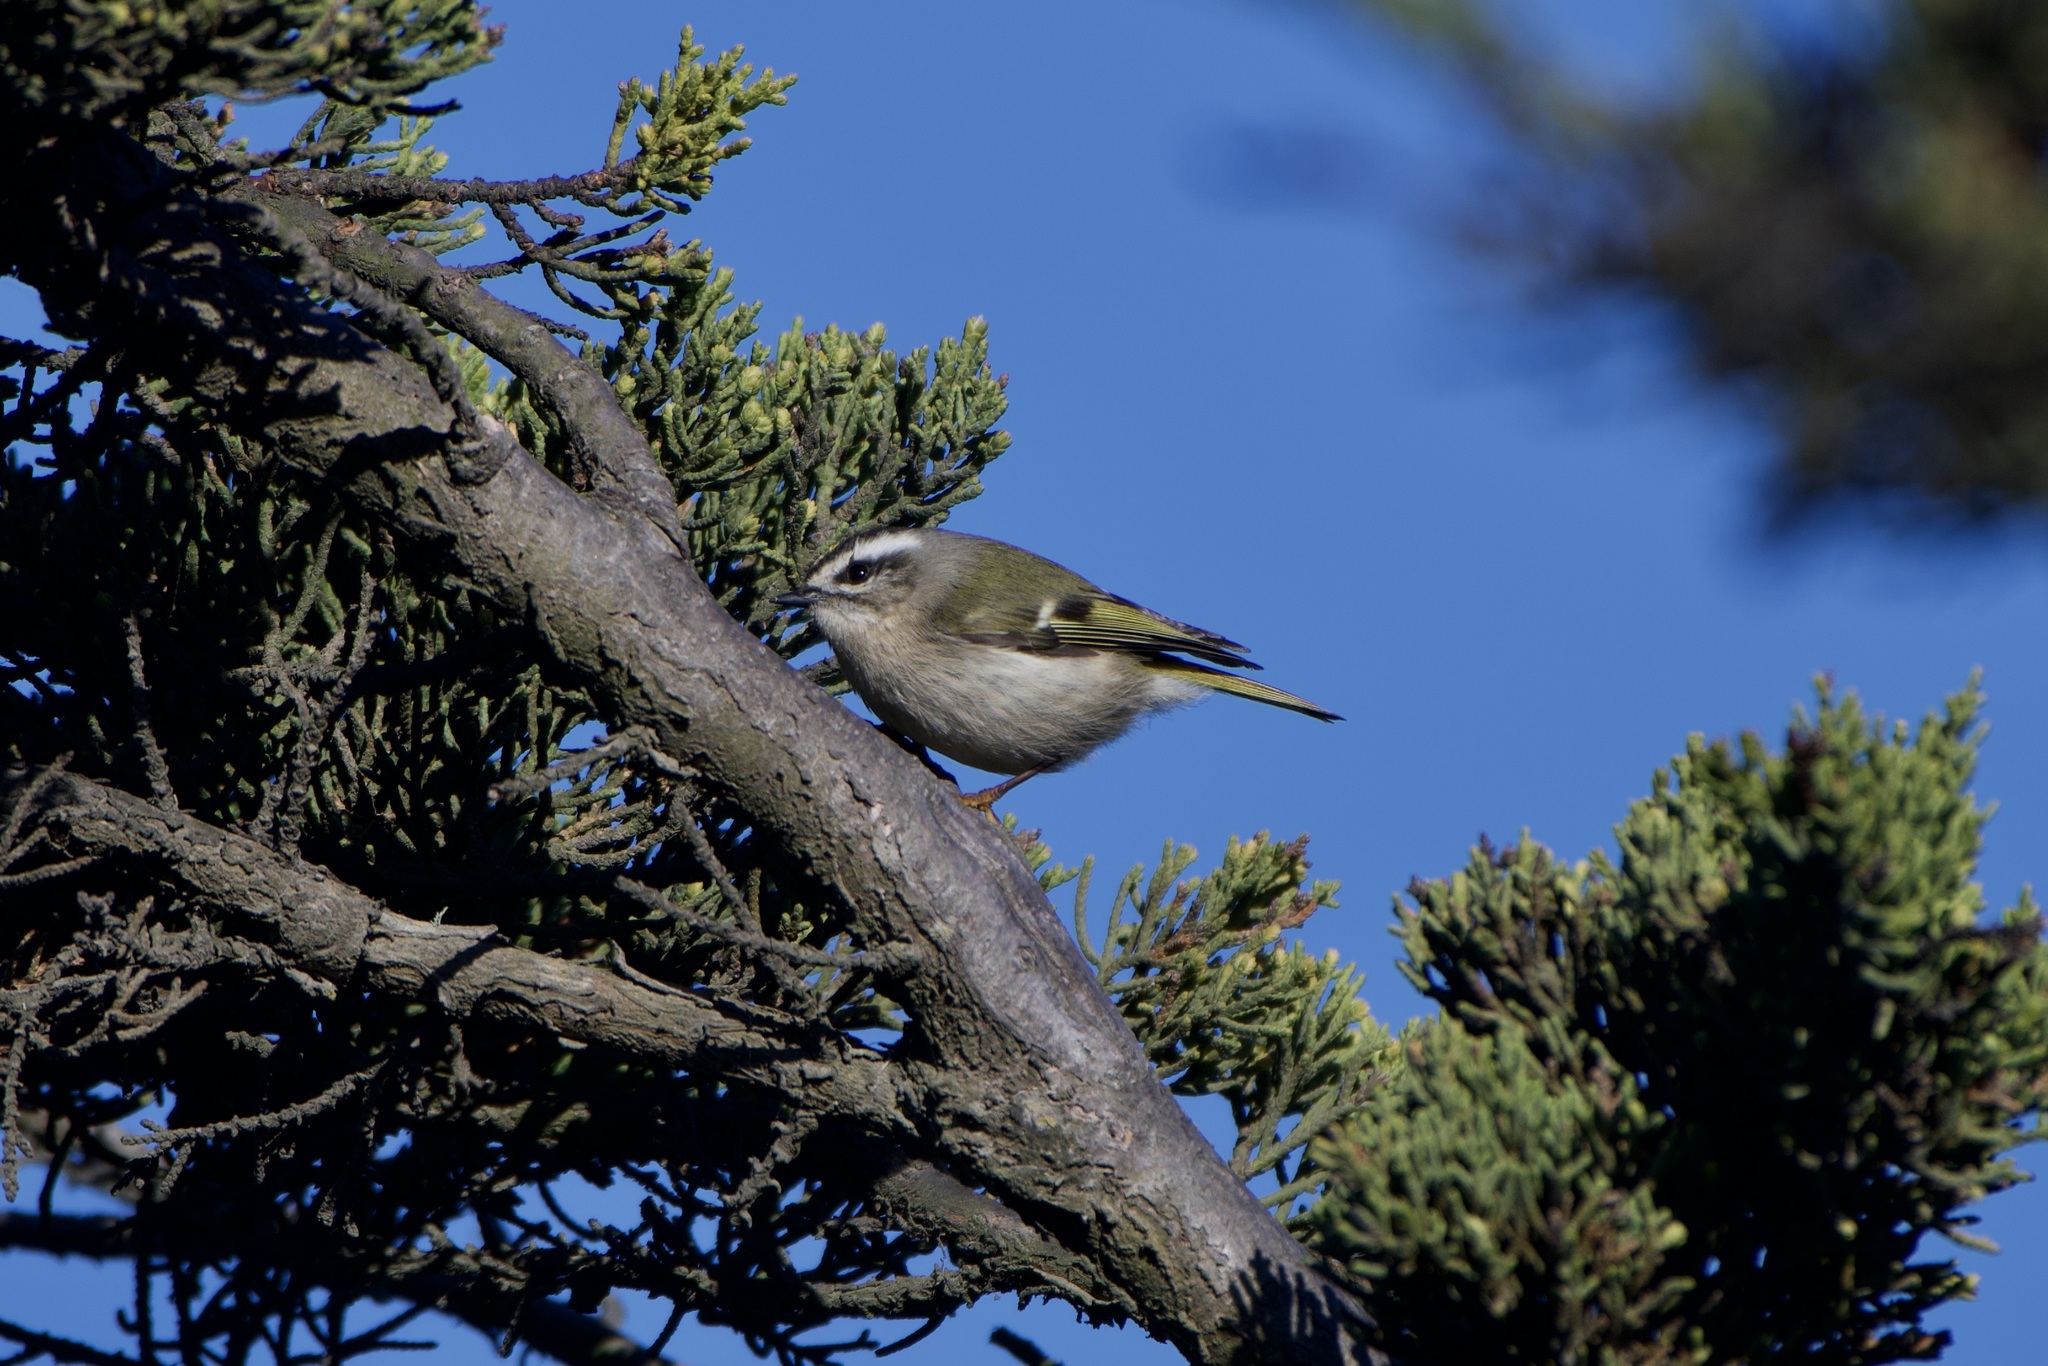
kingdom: Animalia
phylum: Chordata
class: Aves
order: Passeriformes
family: Regulidae
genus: Regulus
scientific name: Regulus satrapa
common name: Golden-crowned kinglet
